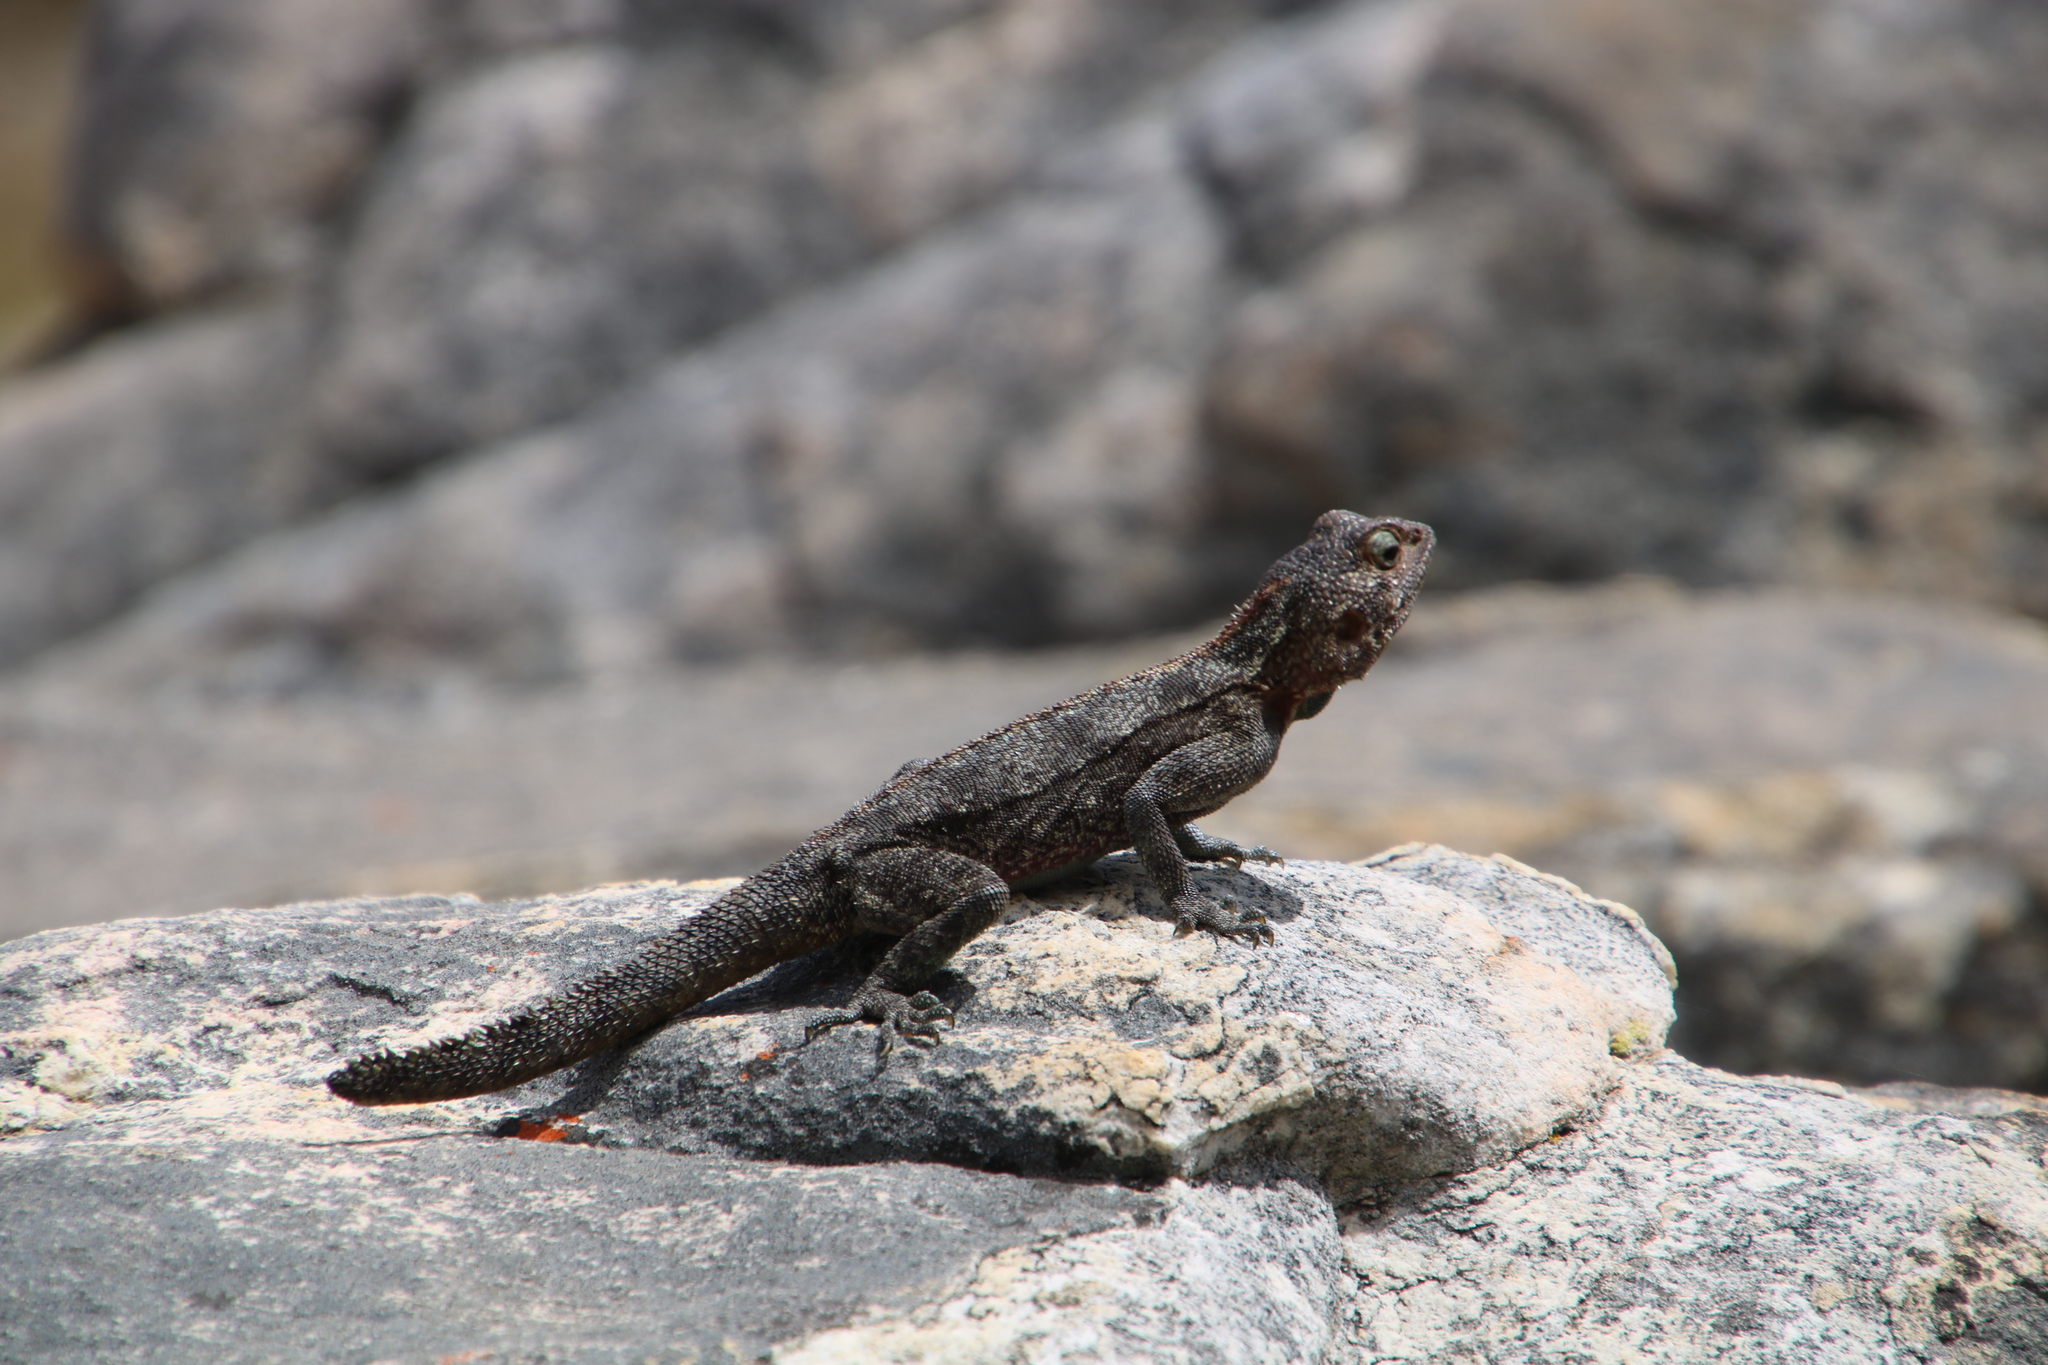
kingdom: Animalia
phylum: Chordata
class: Squamata
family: Agamidae
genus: Agama
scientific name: Agama atra
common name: Southern african rock agama
